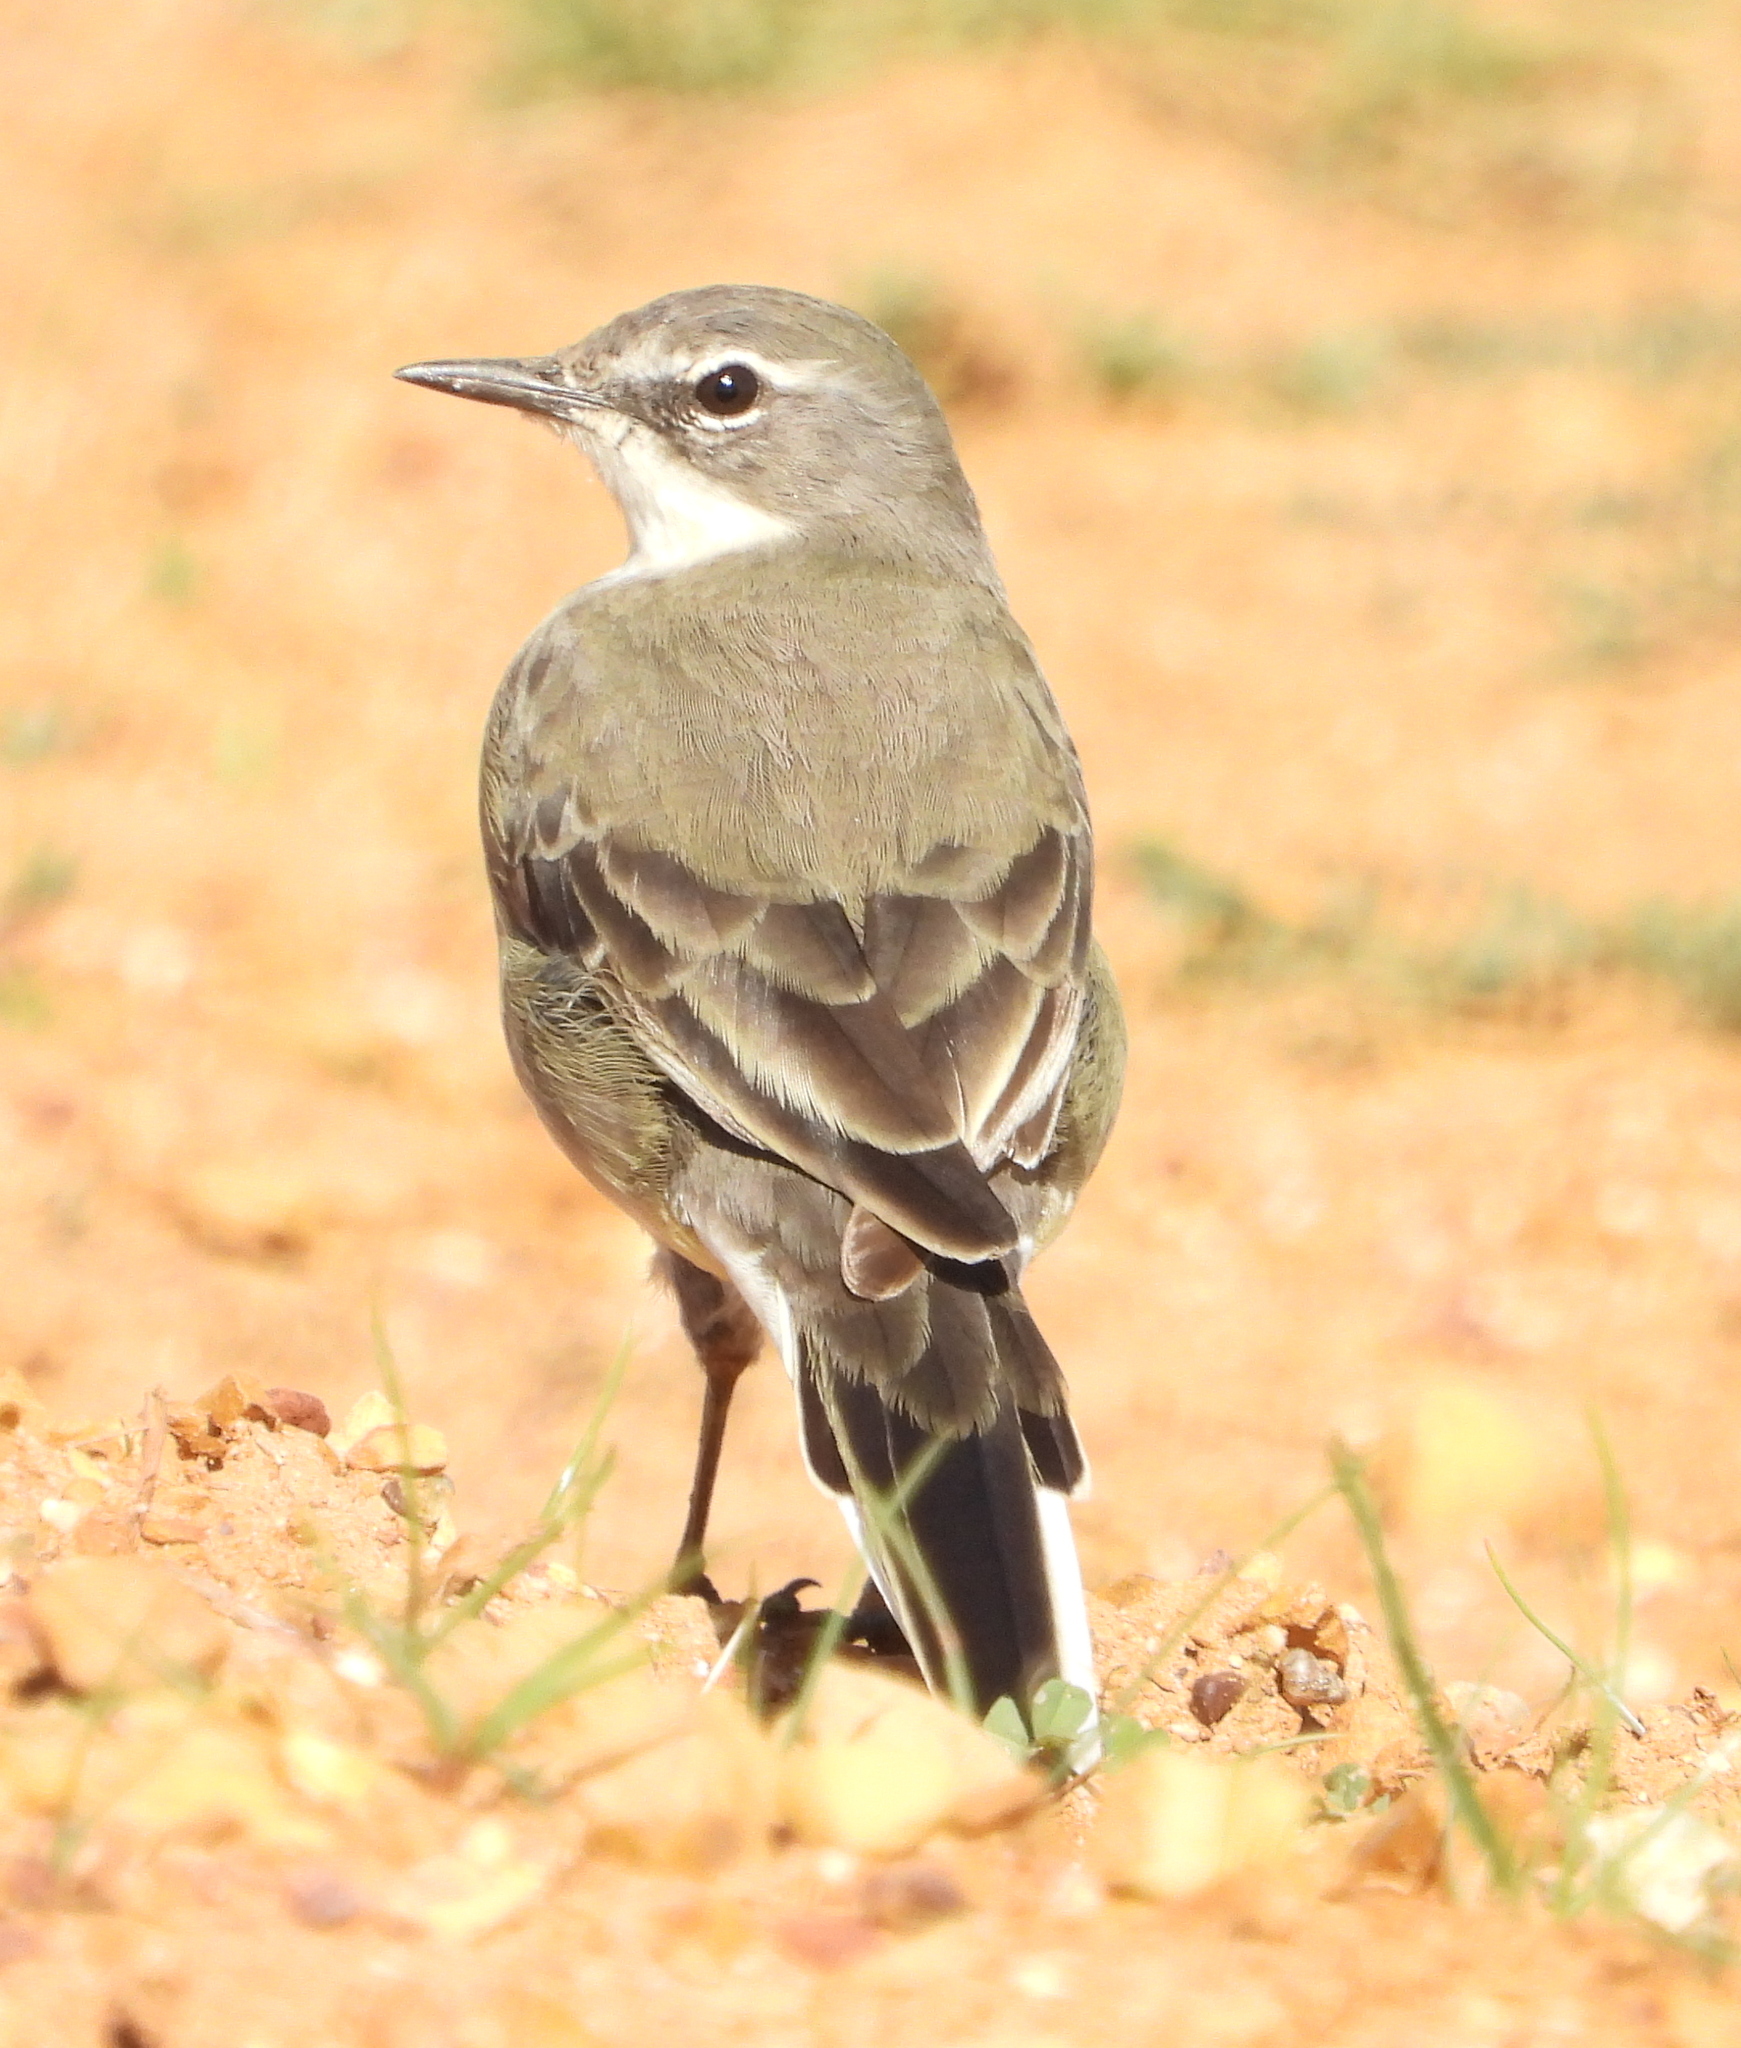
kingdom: Animalia
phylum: Chordata
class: Aves
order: Passeriformes
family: Motacillidae
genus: Motacilla
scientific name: Motacilla capensis
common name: Cape wagtail
